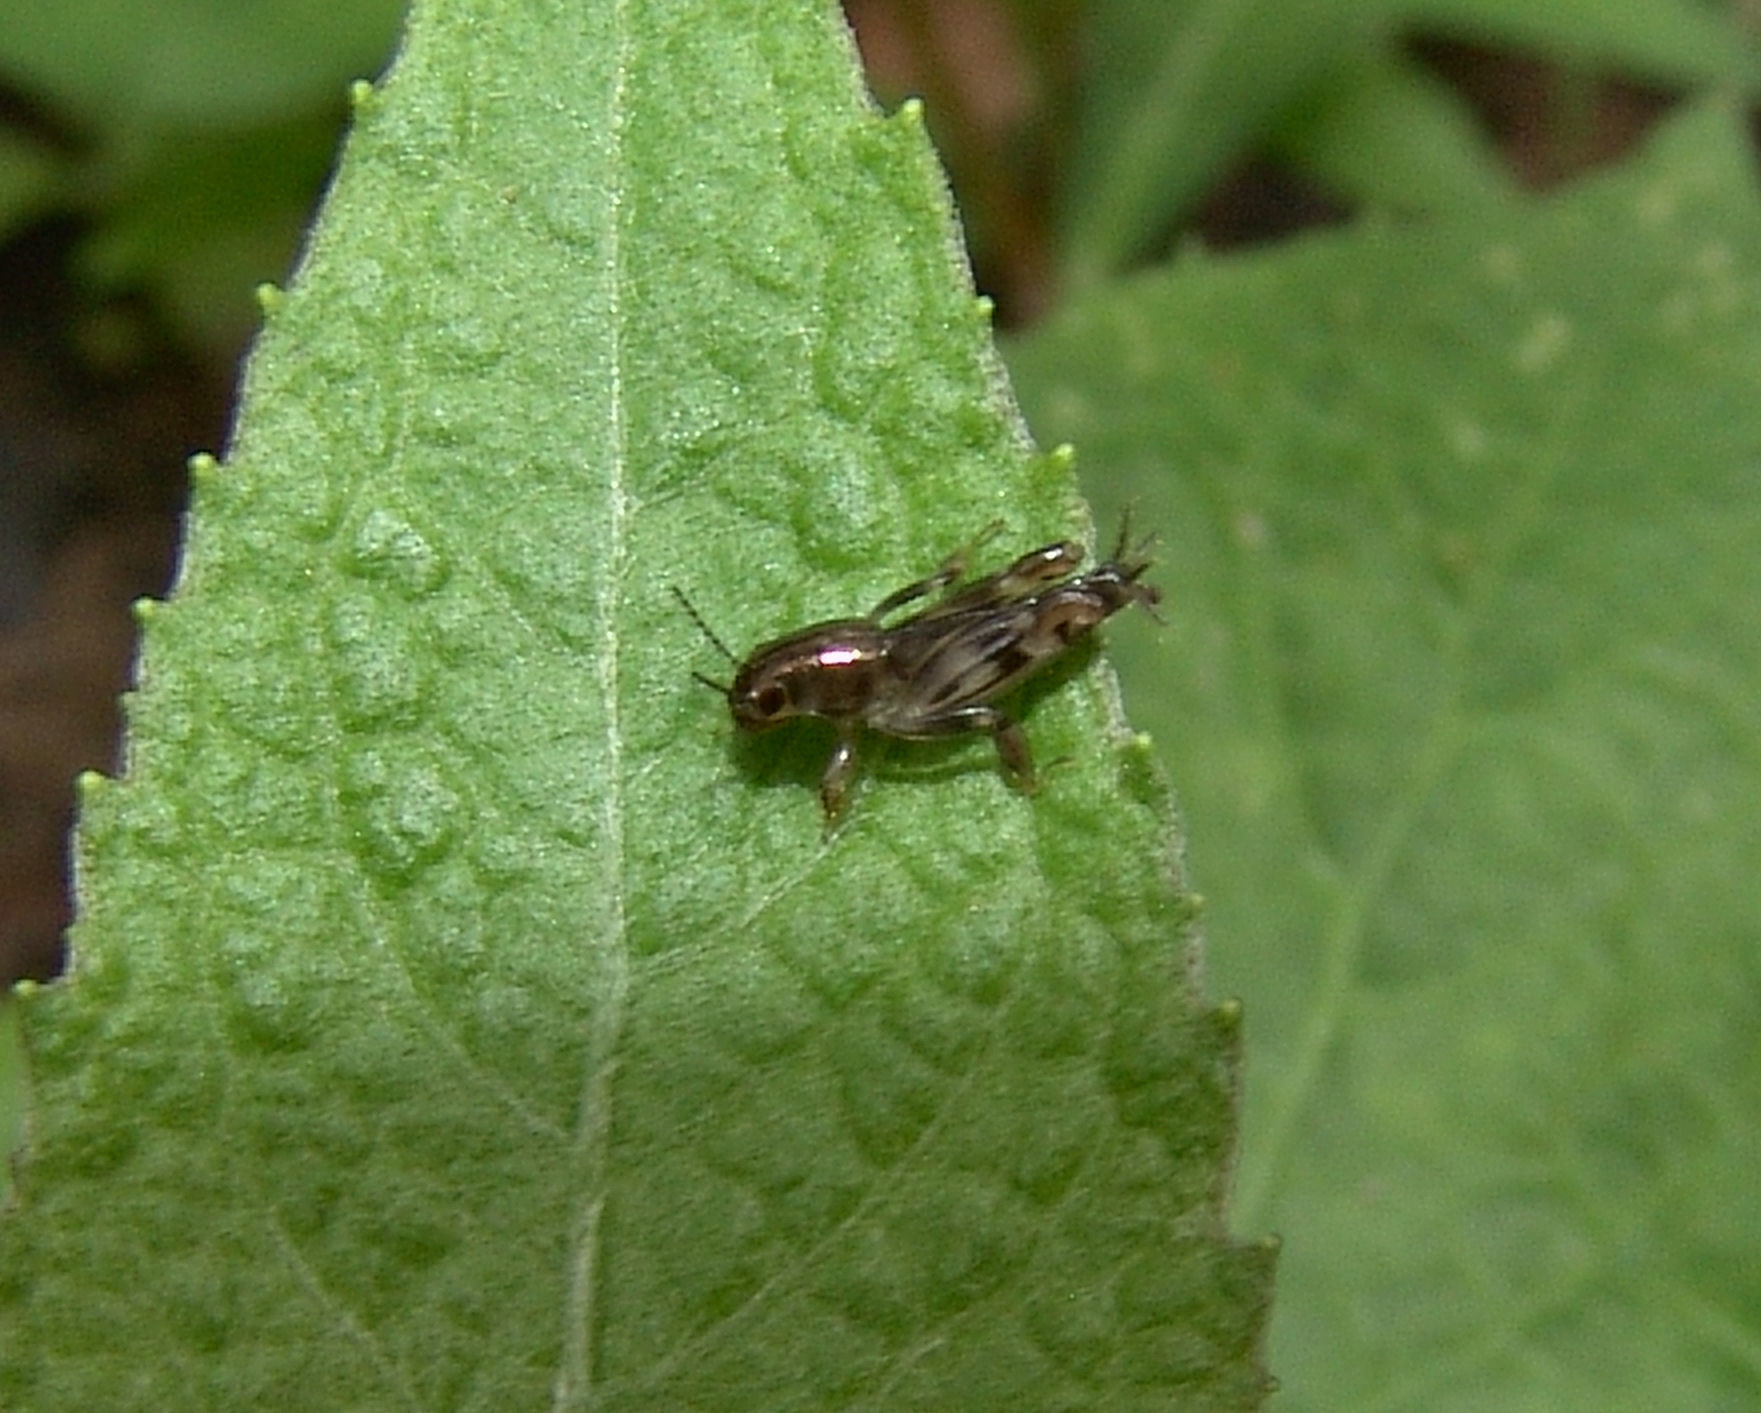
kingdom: Animalia
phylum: Arthropoda
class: Insecta
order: Orthoptera
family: Tridactylidae
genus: Neotridactylus
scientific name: Neotridactylus apicialis
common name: Larger pygmy locust
